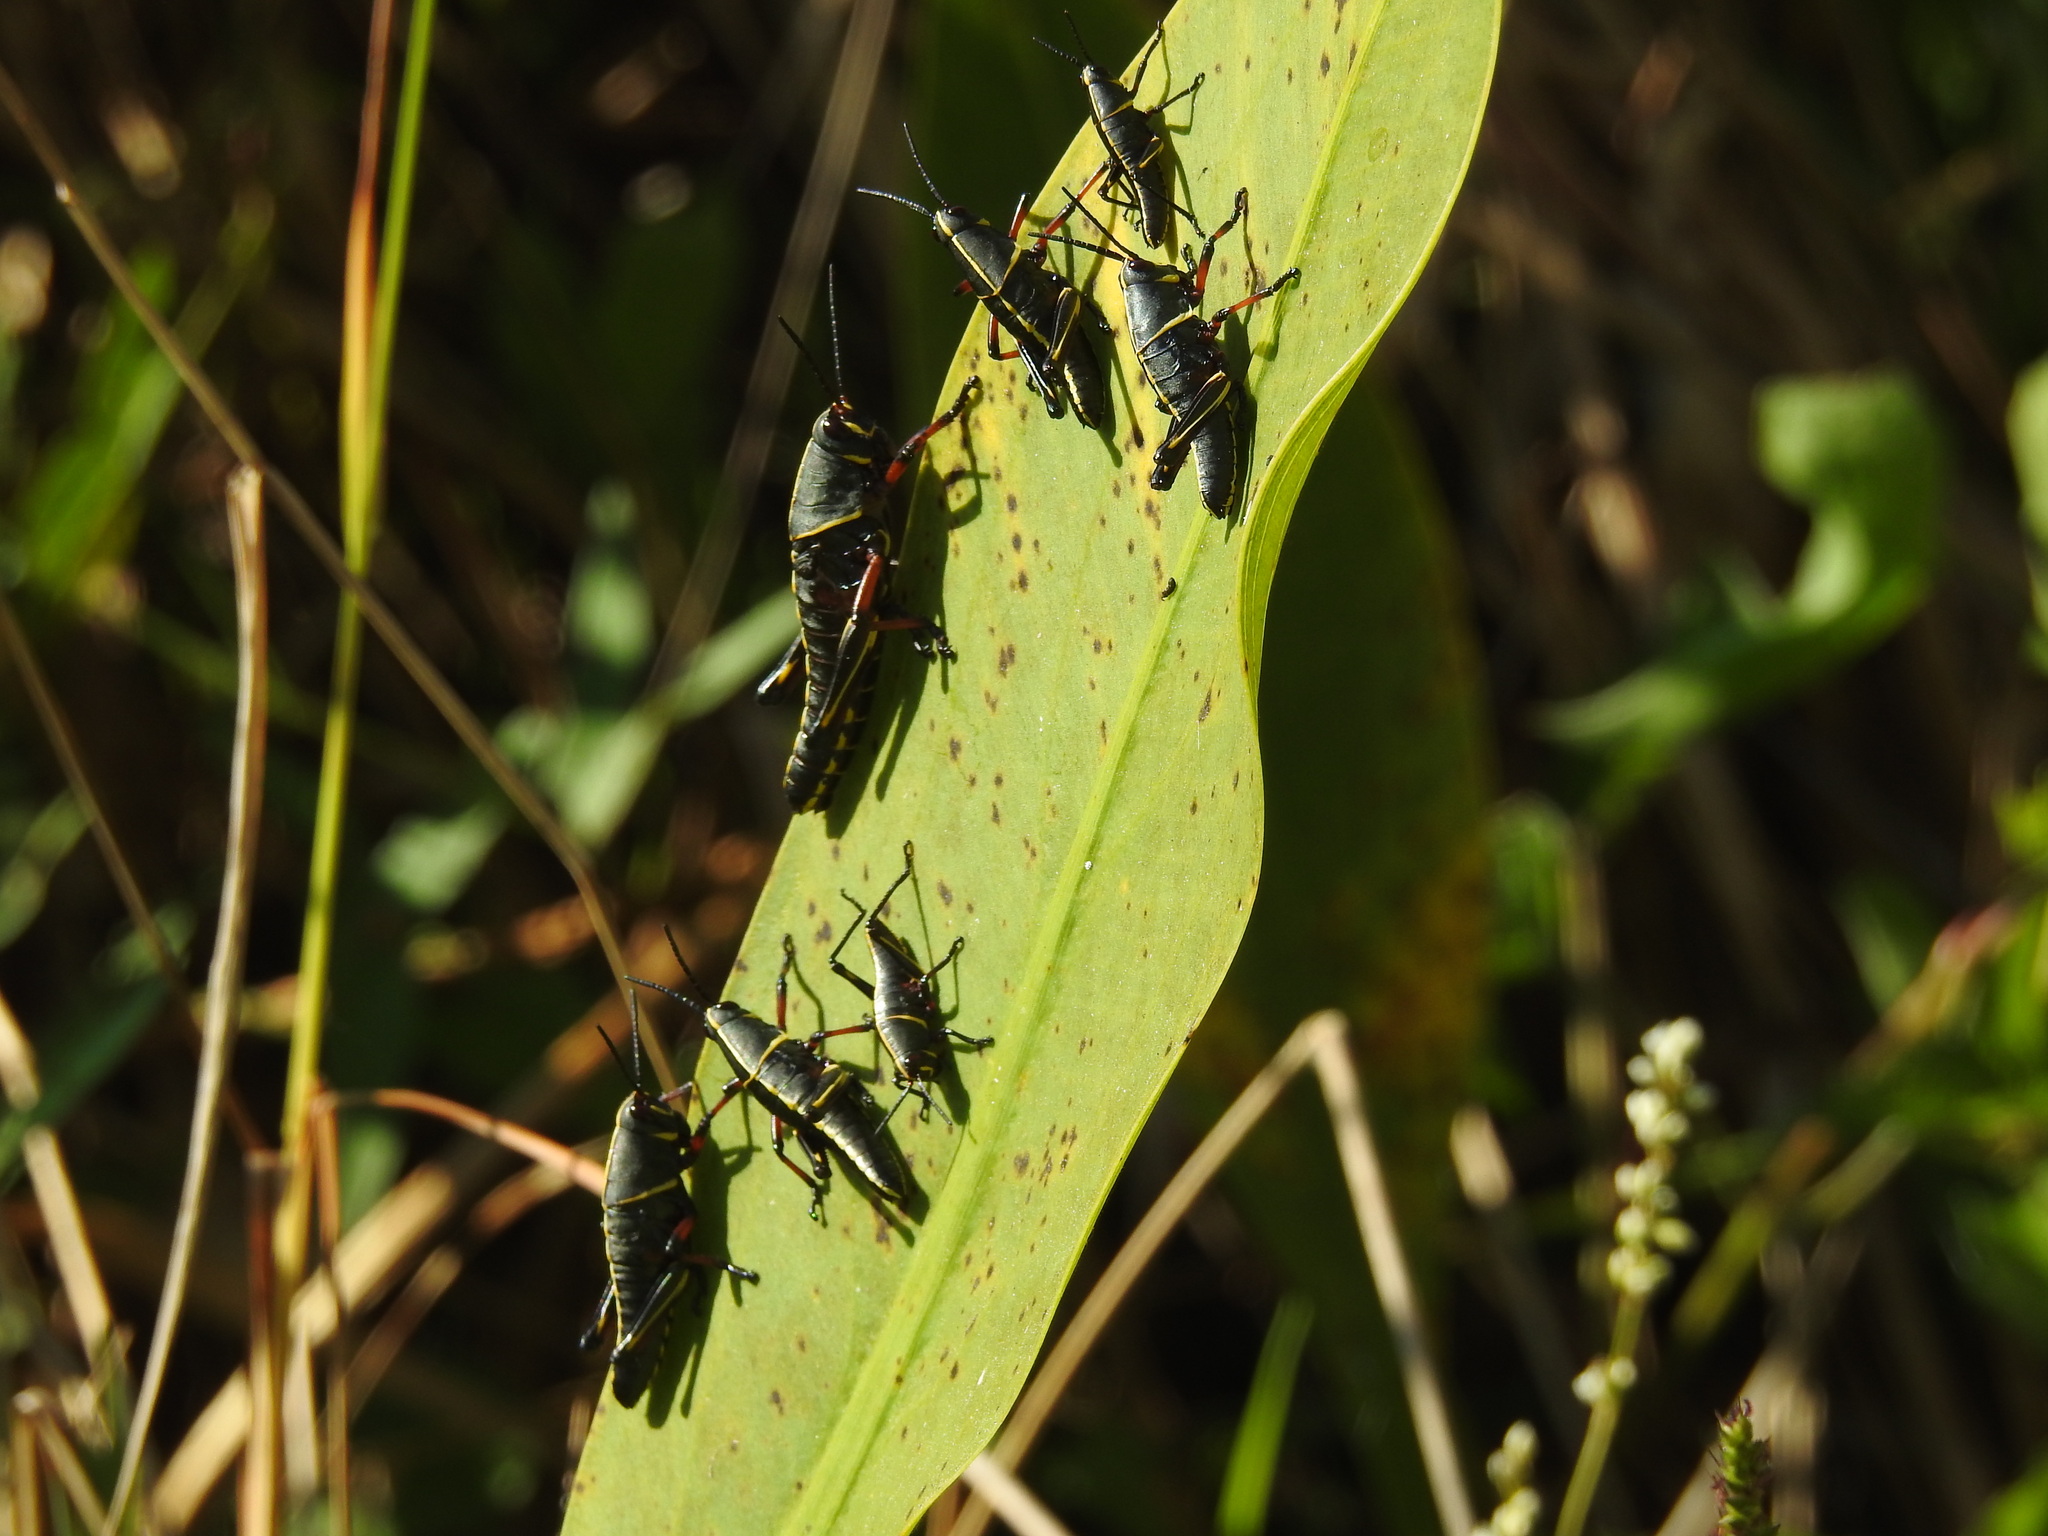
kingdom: Animalia
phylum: Arthropoda
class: Insecta
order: Orthoptera
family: Romaleidae
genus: Romalea
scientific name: Romalea microptera
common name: Eastern lubber grasshopper
